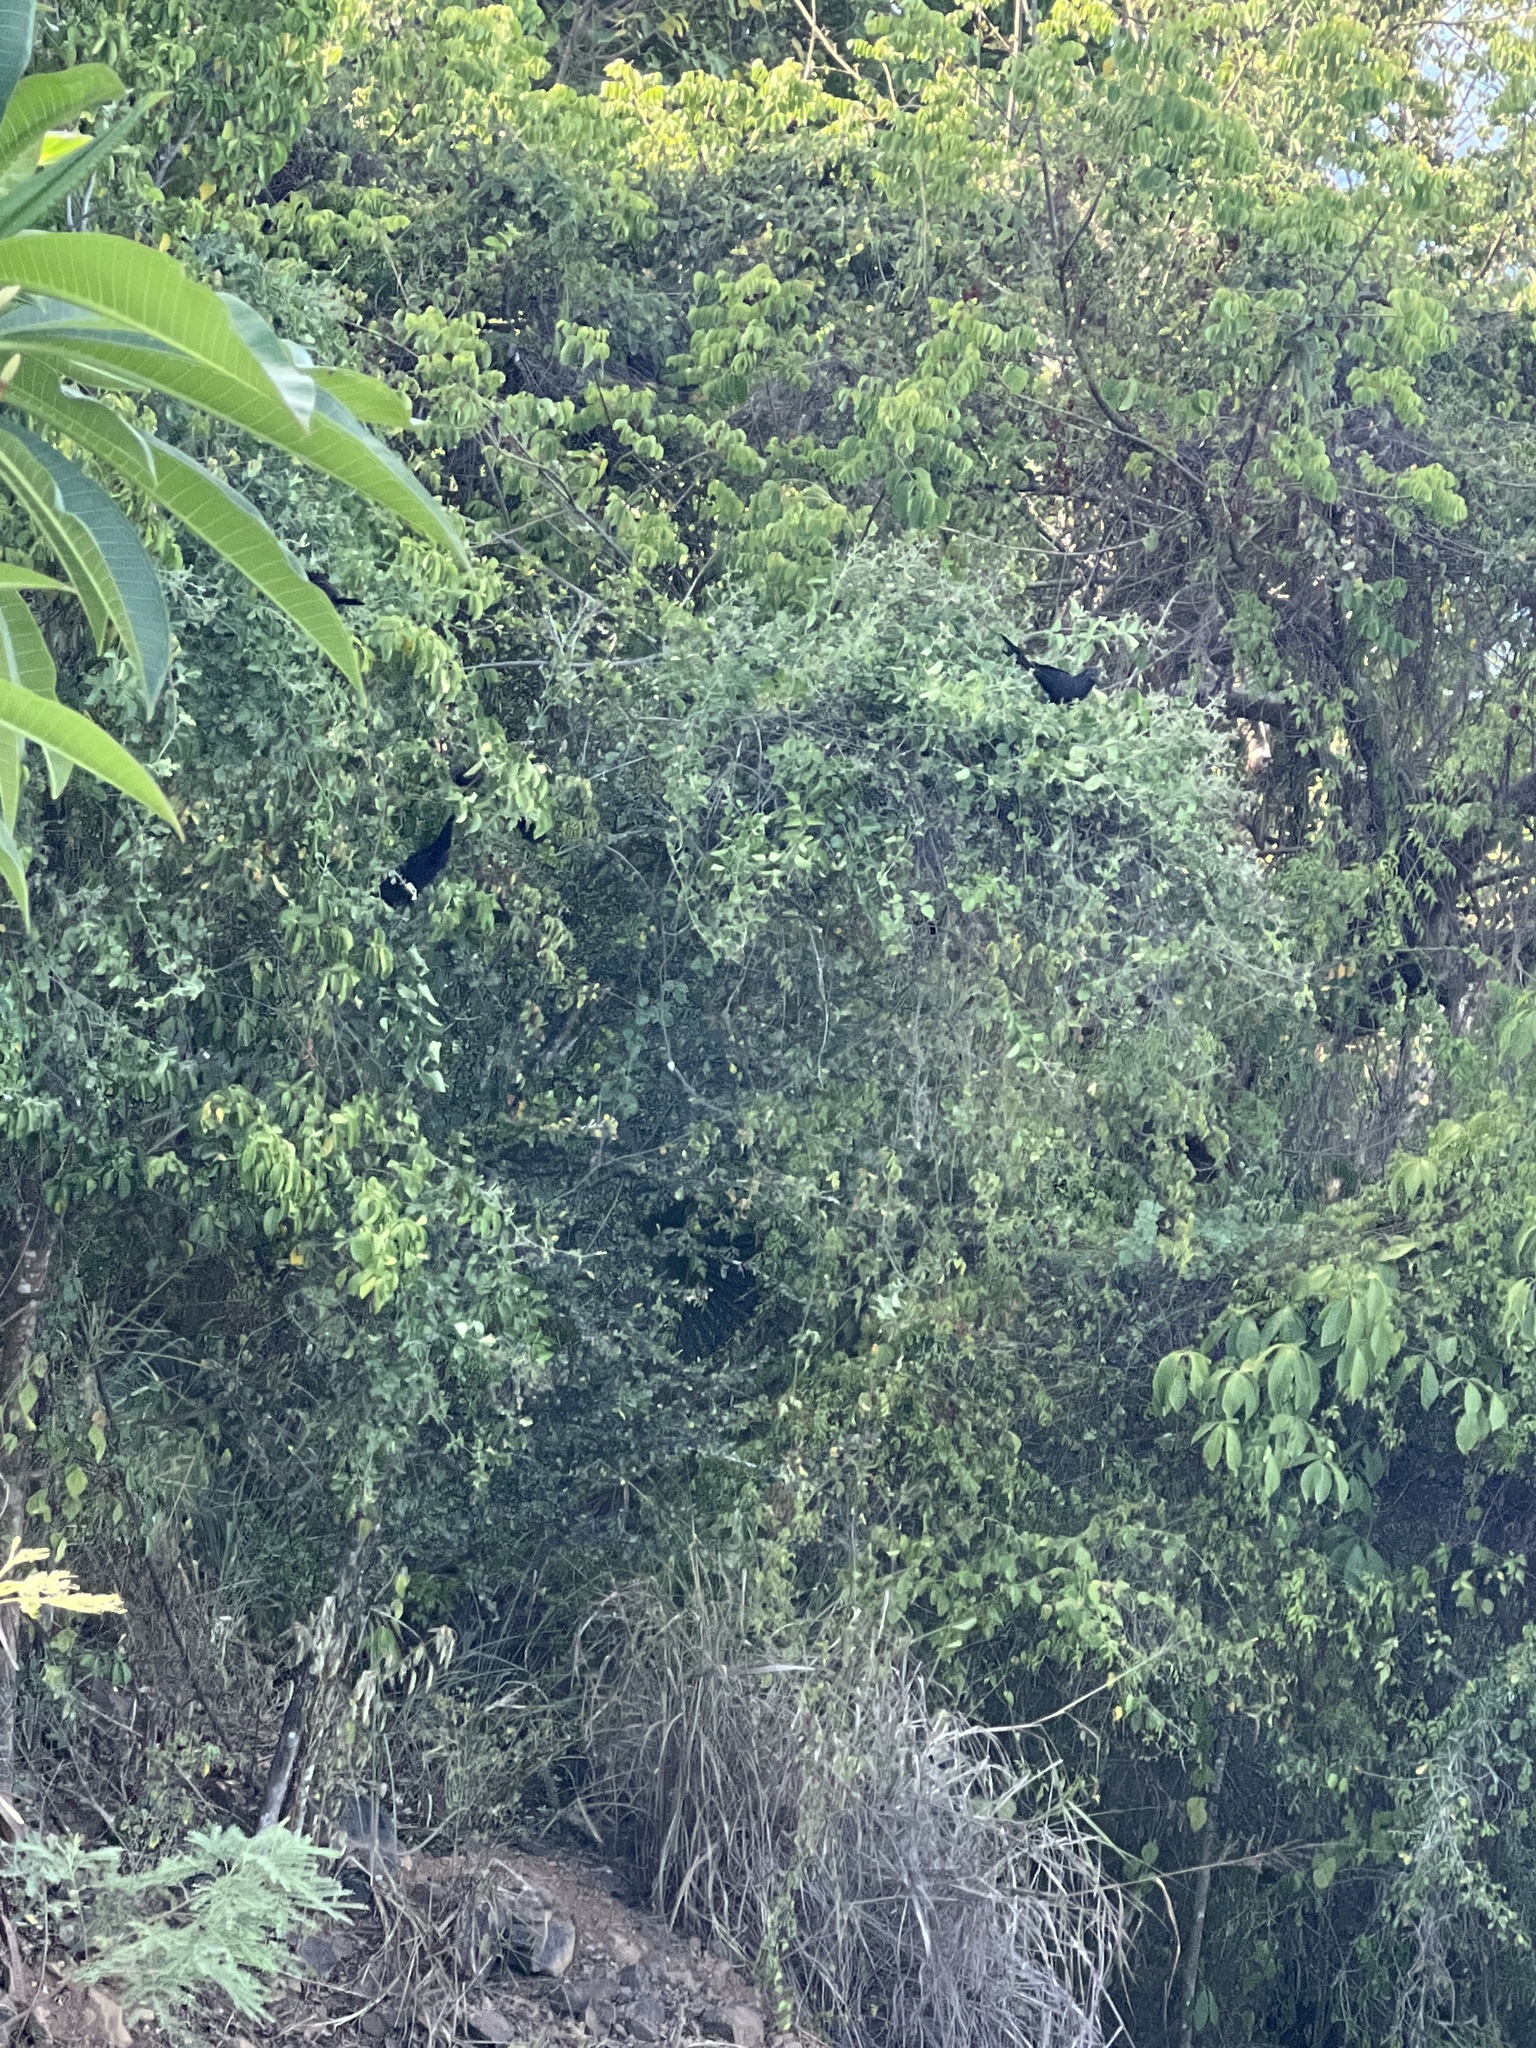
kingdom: Animalia
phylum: Chordata
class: Aves
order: Cuculiformes
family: Cuculidae
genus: Crotophaga
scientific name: Crotophaga ani
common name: Smooth-billed ani
